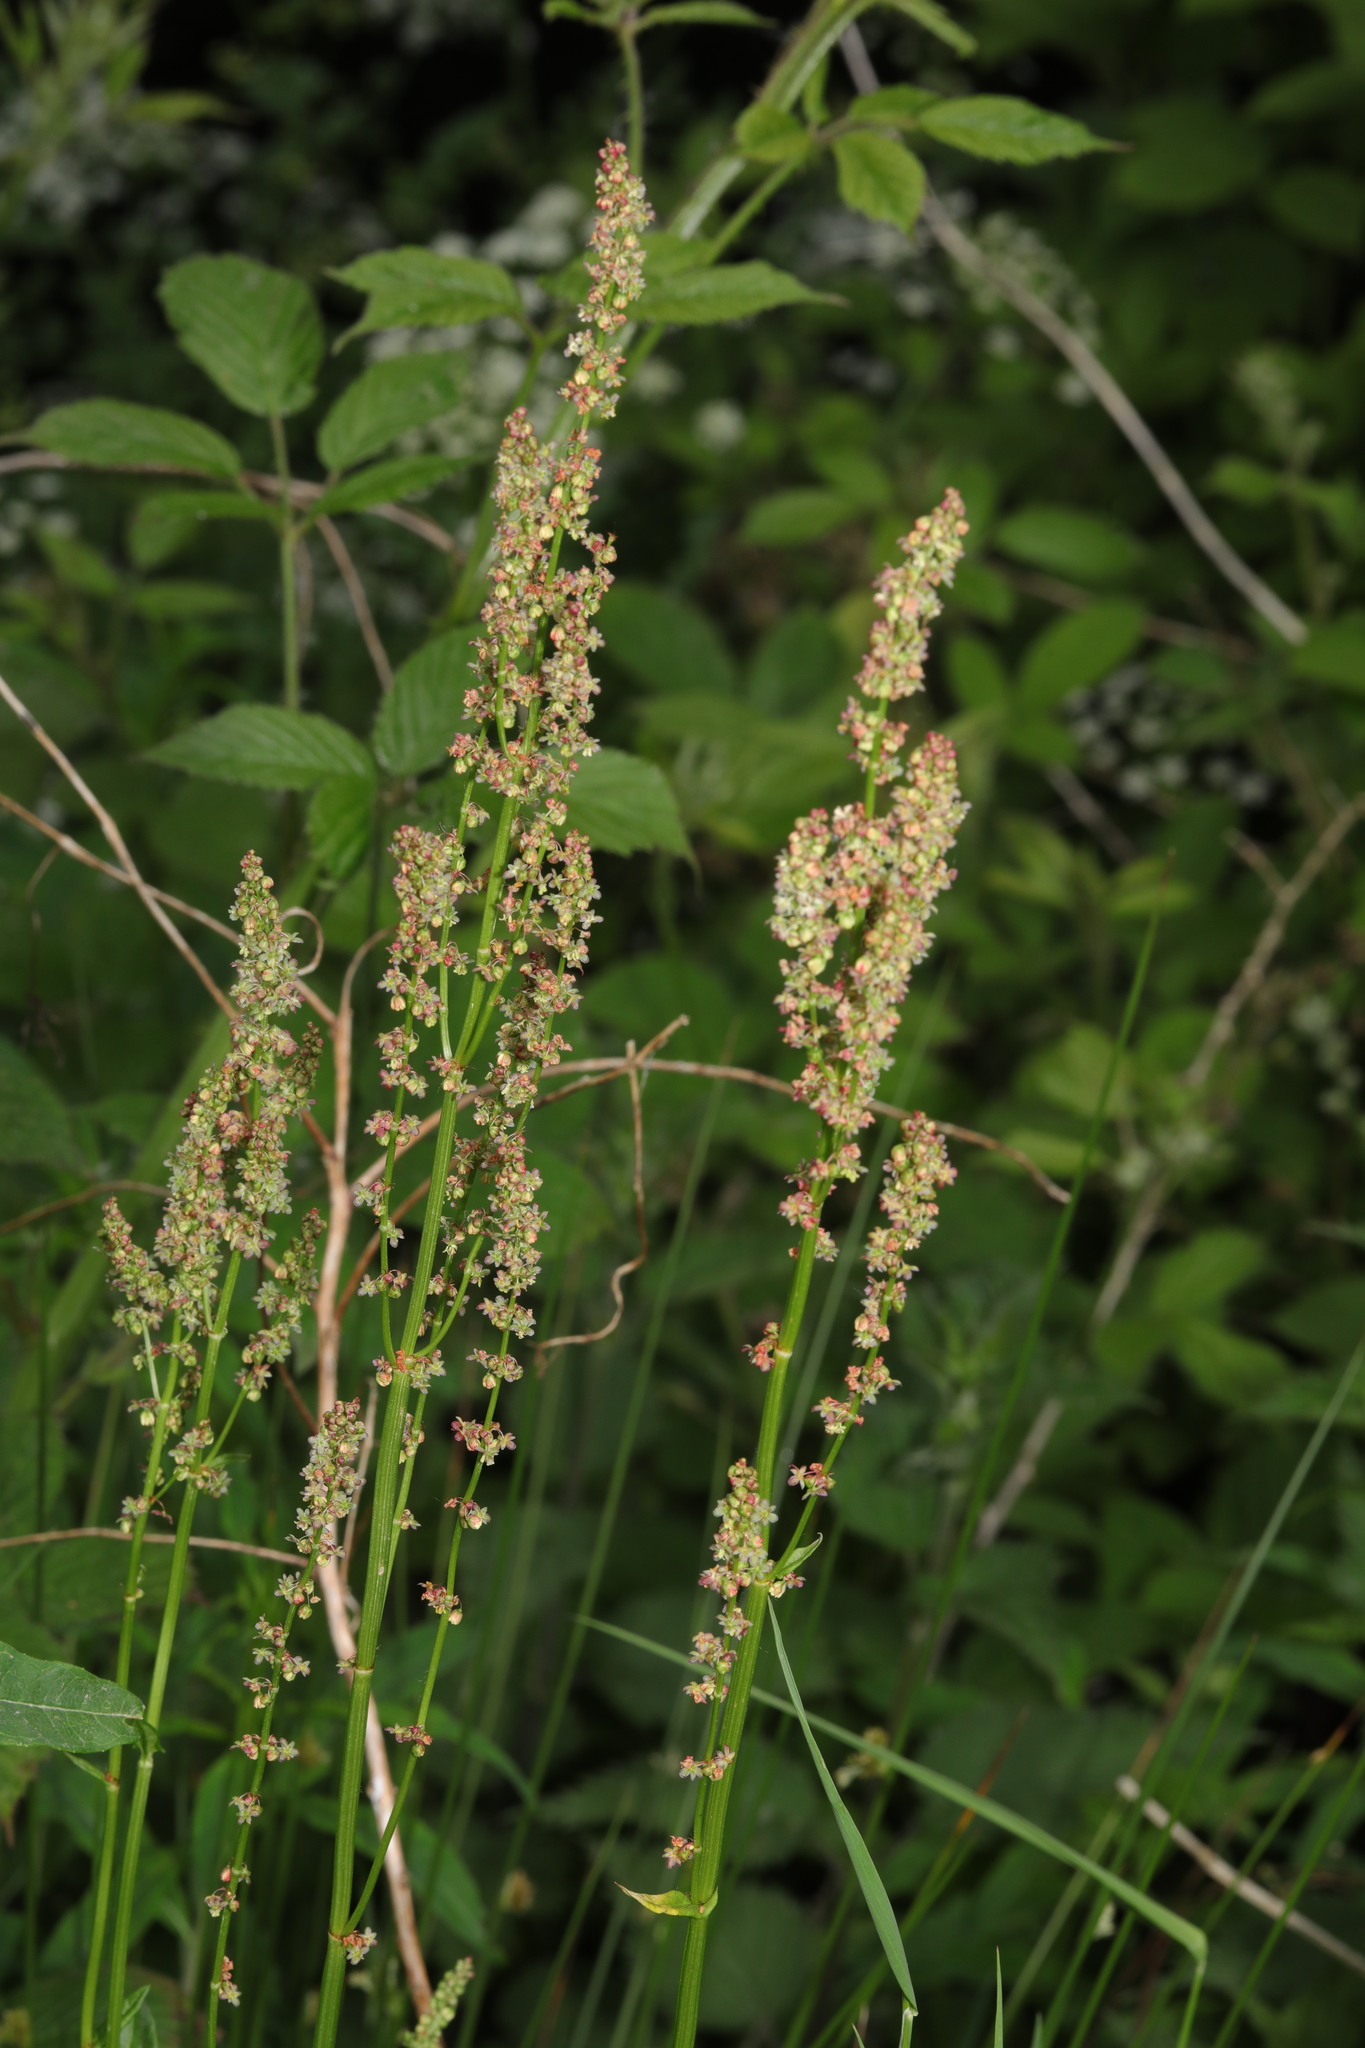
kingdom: Plantae
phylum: Tracheophyta
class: Magnoliopsida
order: Caryophyllales
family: Polygonaceae
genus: Rumex
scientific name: Rumex acetosa
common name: Garden sorrel
